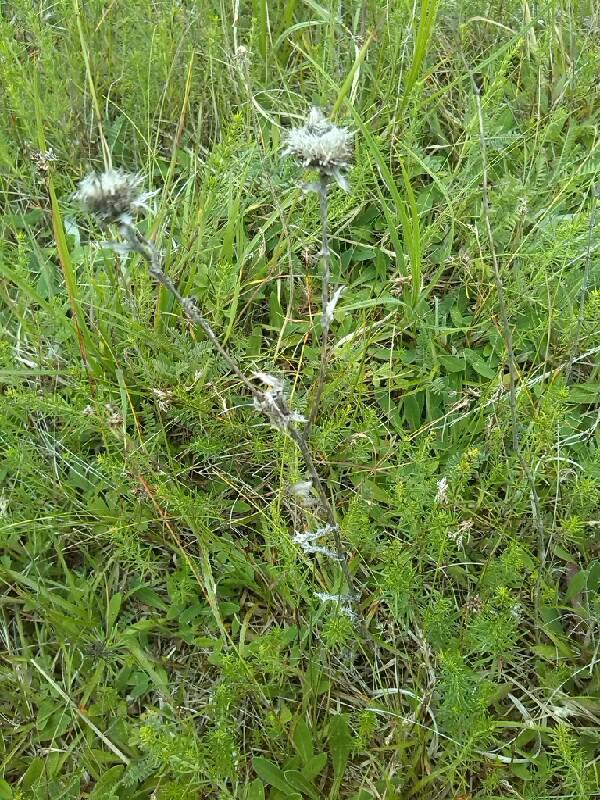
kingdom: Plantae
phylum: Tracheophyta
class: Magnoliopsida
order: Asterales
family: Asteraceae
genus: Carlina
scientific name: Carlina vulgaris
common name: Carline thistle
